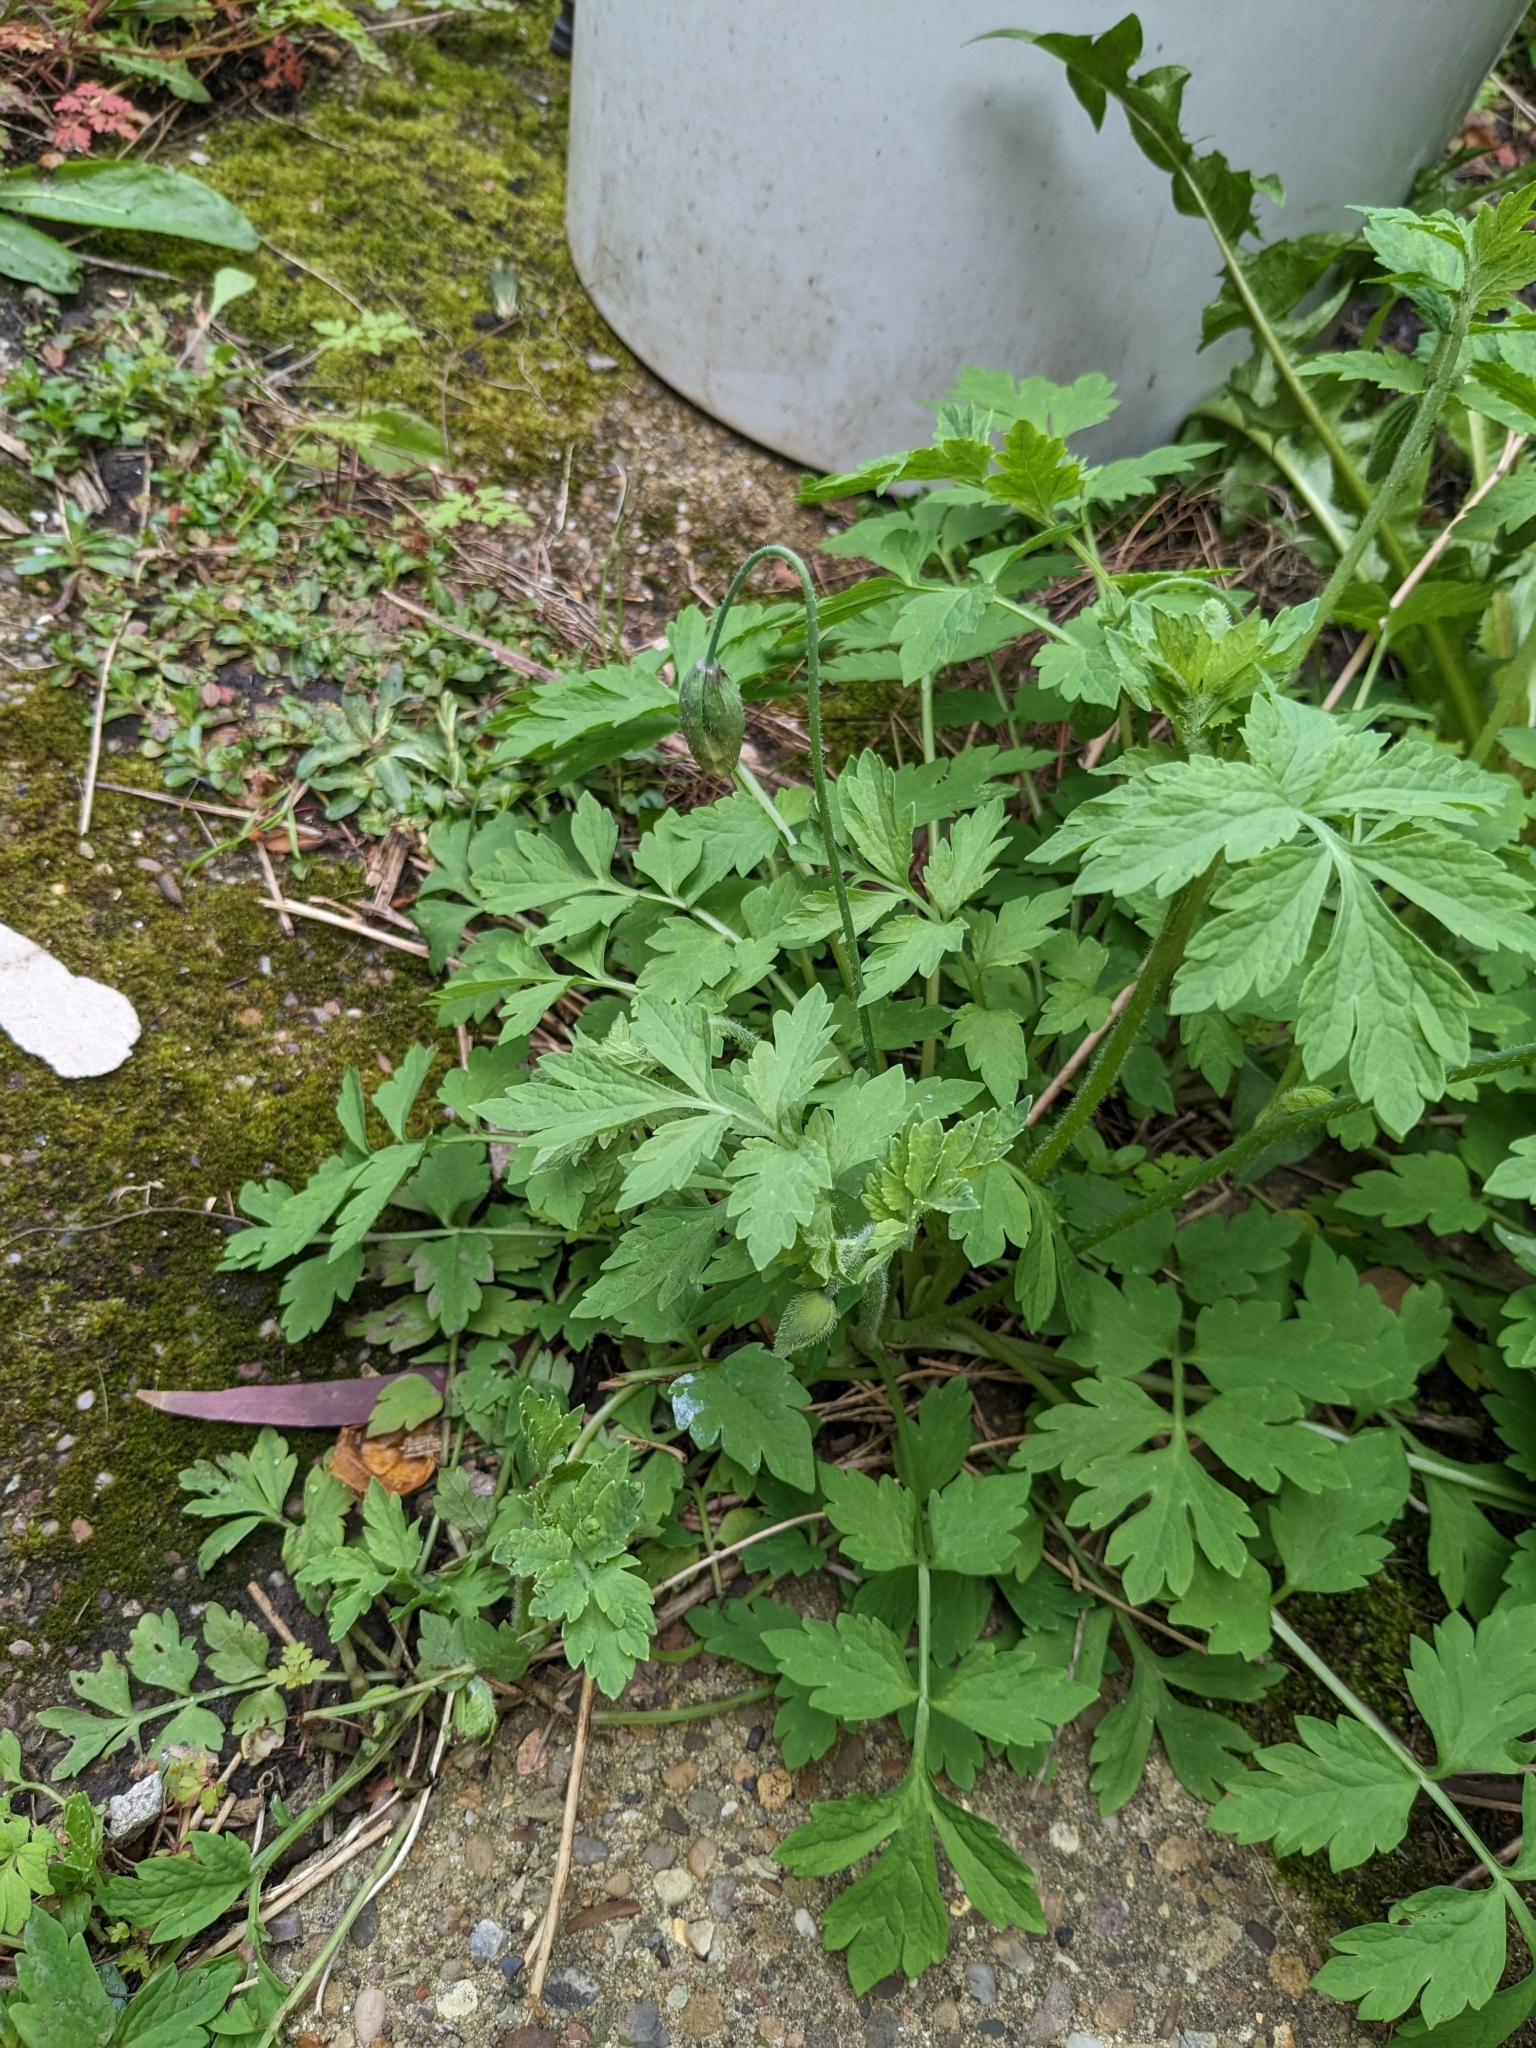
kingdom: Plantae
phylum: Tracheophyta
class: Magnoliopsida
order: Ranunculales
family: Papaveraceae
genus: Papaver
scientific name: Papaver cambricum
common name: Poppy
